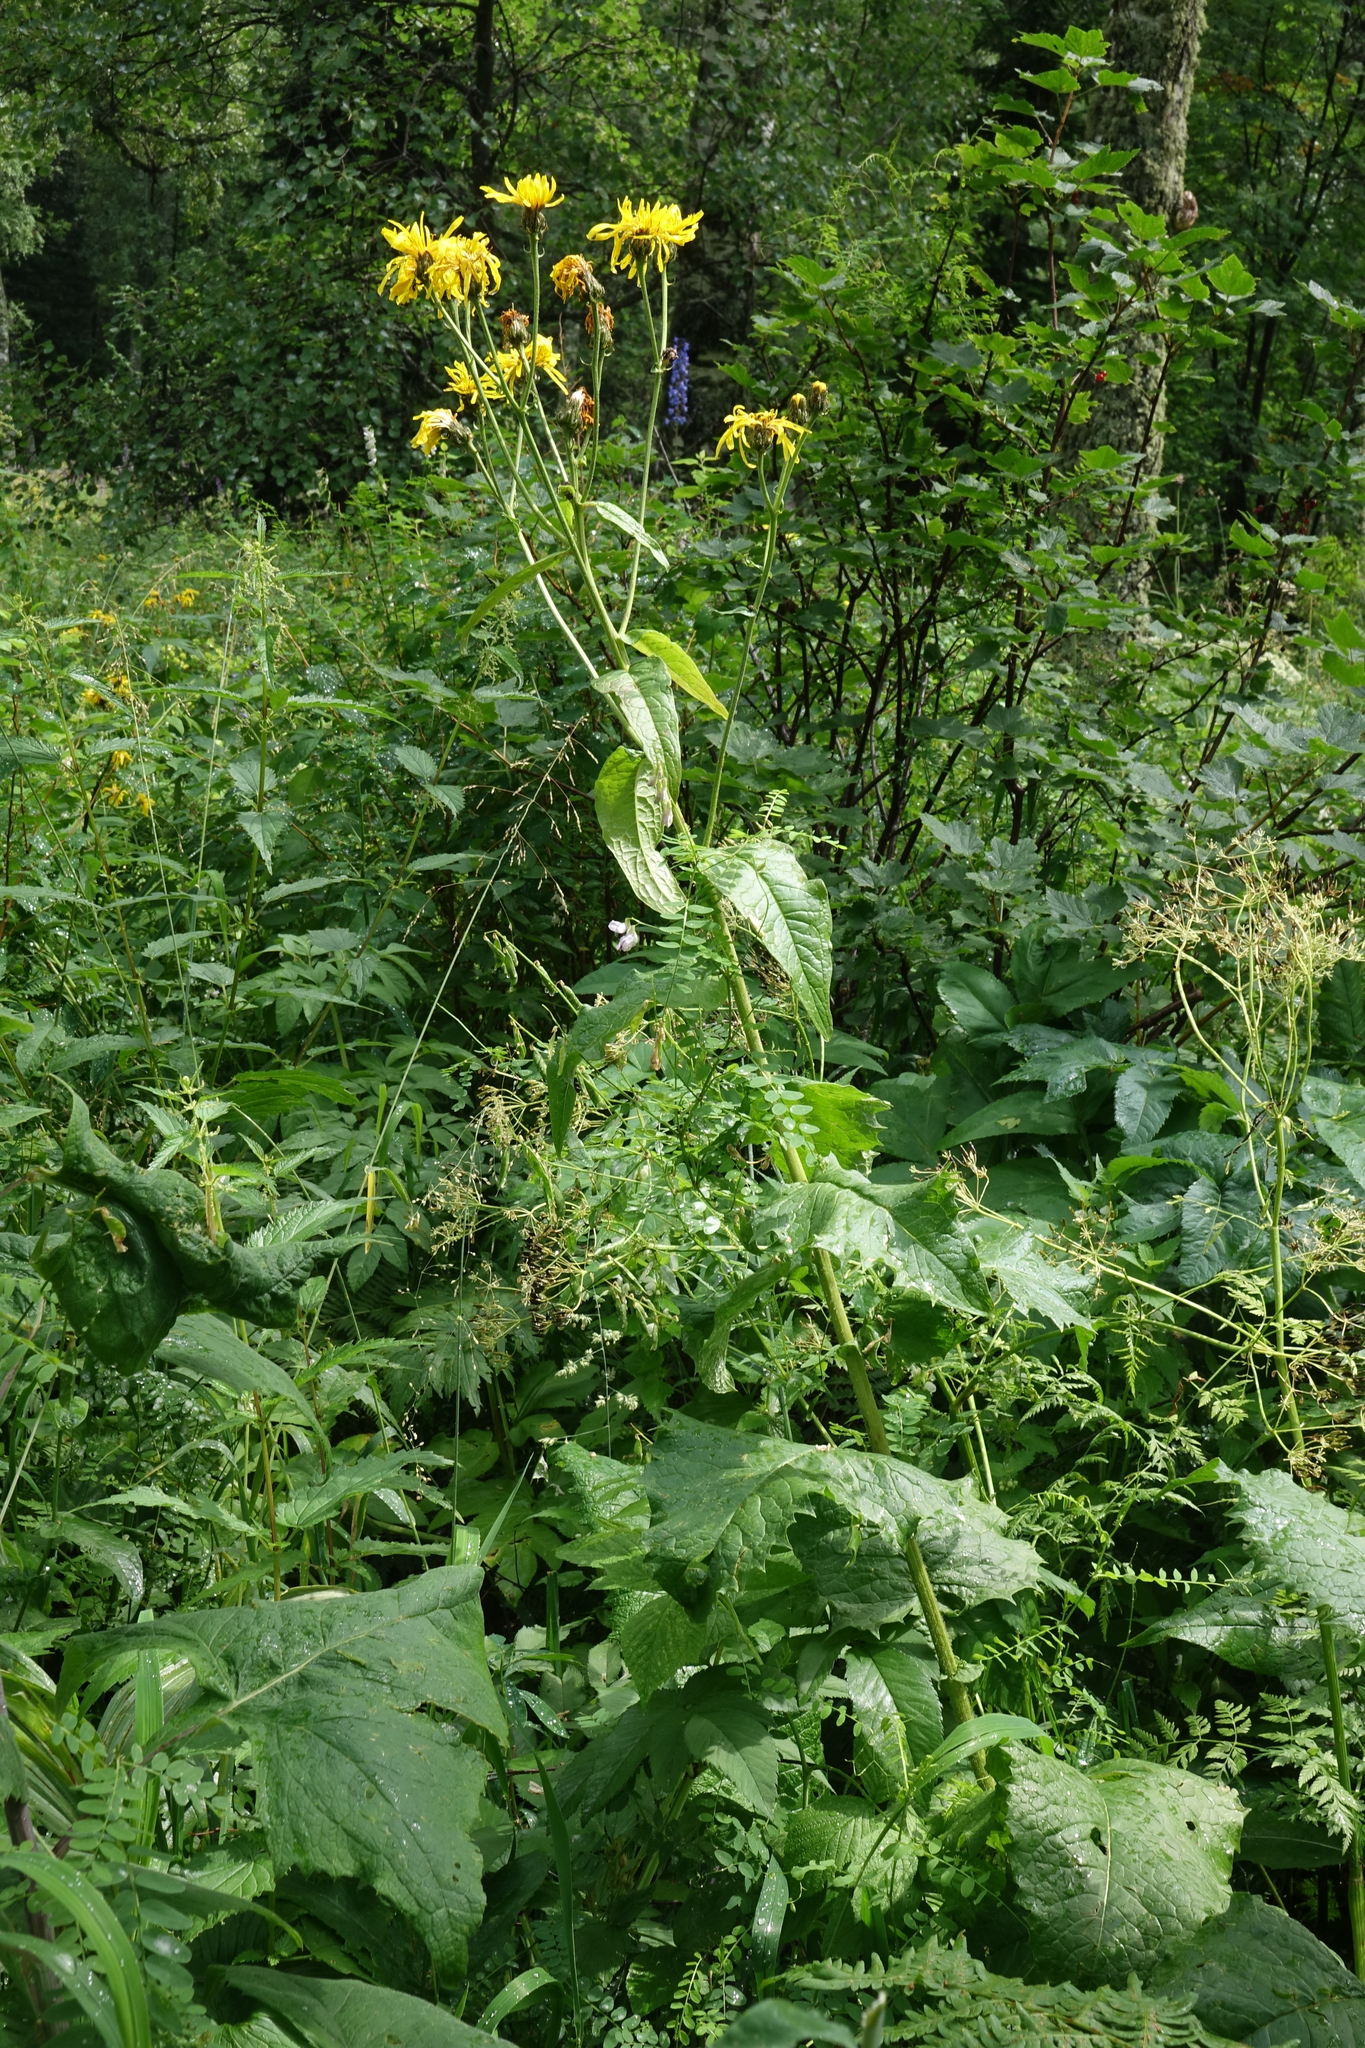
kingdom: Plantae
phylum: Tracheophyta
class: Magnoliopsida
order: Asterales
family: Asteraceae
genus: Crepis
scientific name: Crepis sibirica
